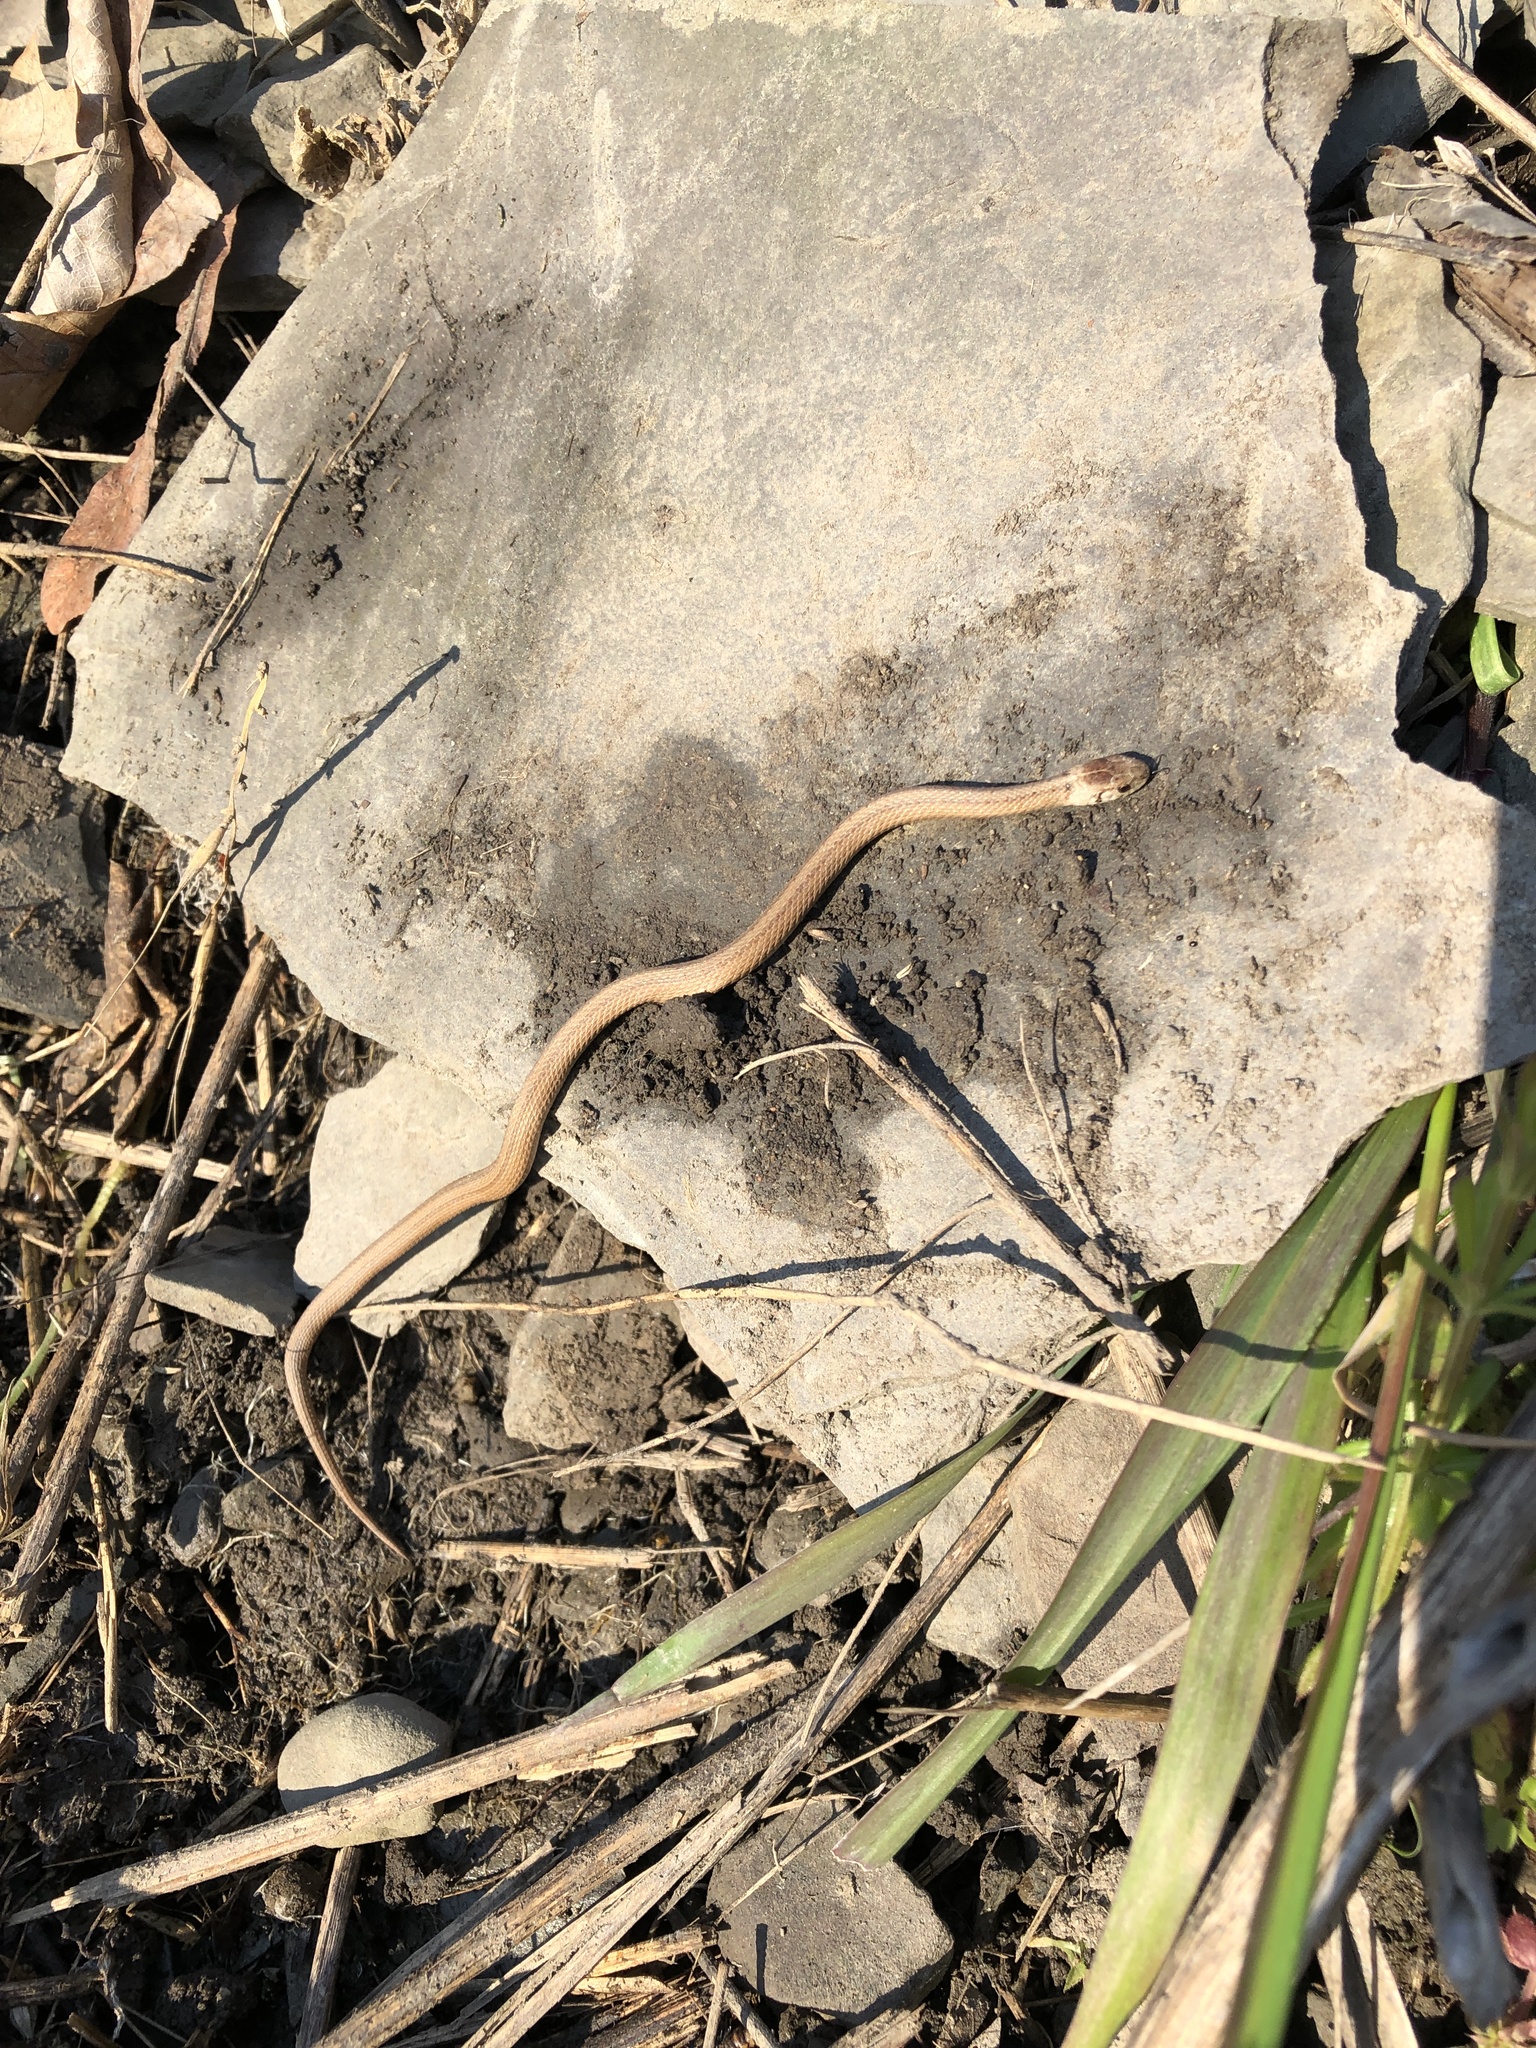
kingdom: Animalia
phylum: Chordata
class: Squamata
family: Colubridae
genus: Storeria
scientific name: Storeria dekayi
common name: (dekay’s) brown snake
